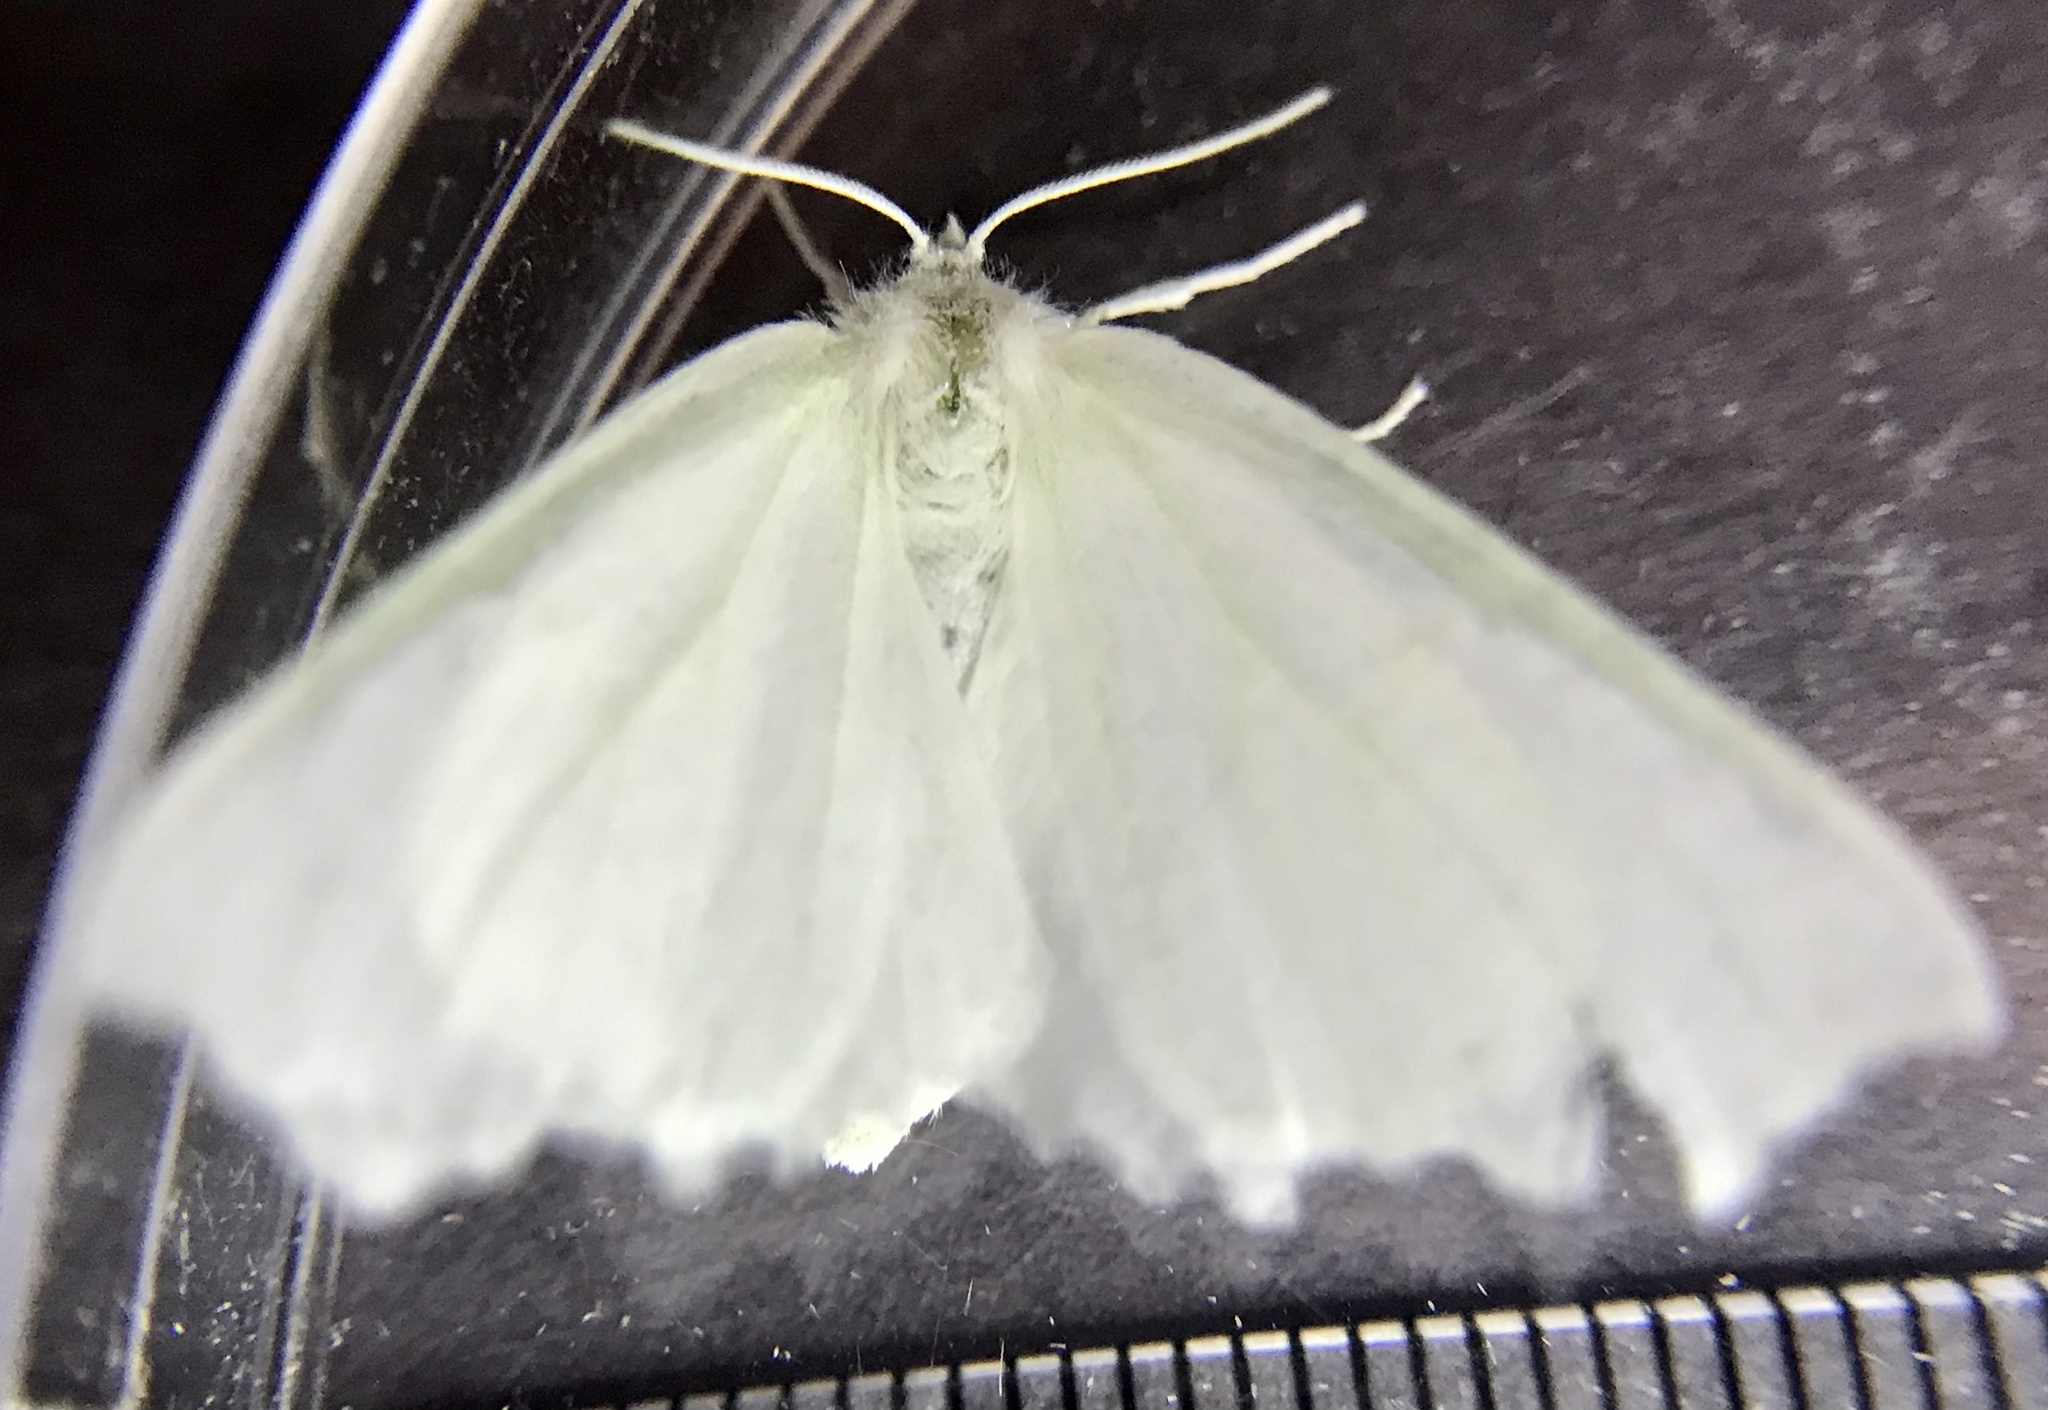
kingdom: Animalia
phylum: Arthropoda
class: Insecta
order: Lepidoptera
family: Geometridae
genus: Ennomos
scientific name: Ennomos subsignaria
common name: Elm spanworm
